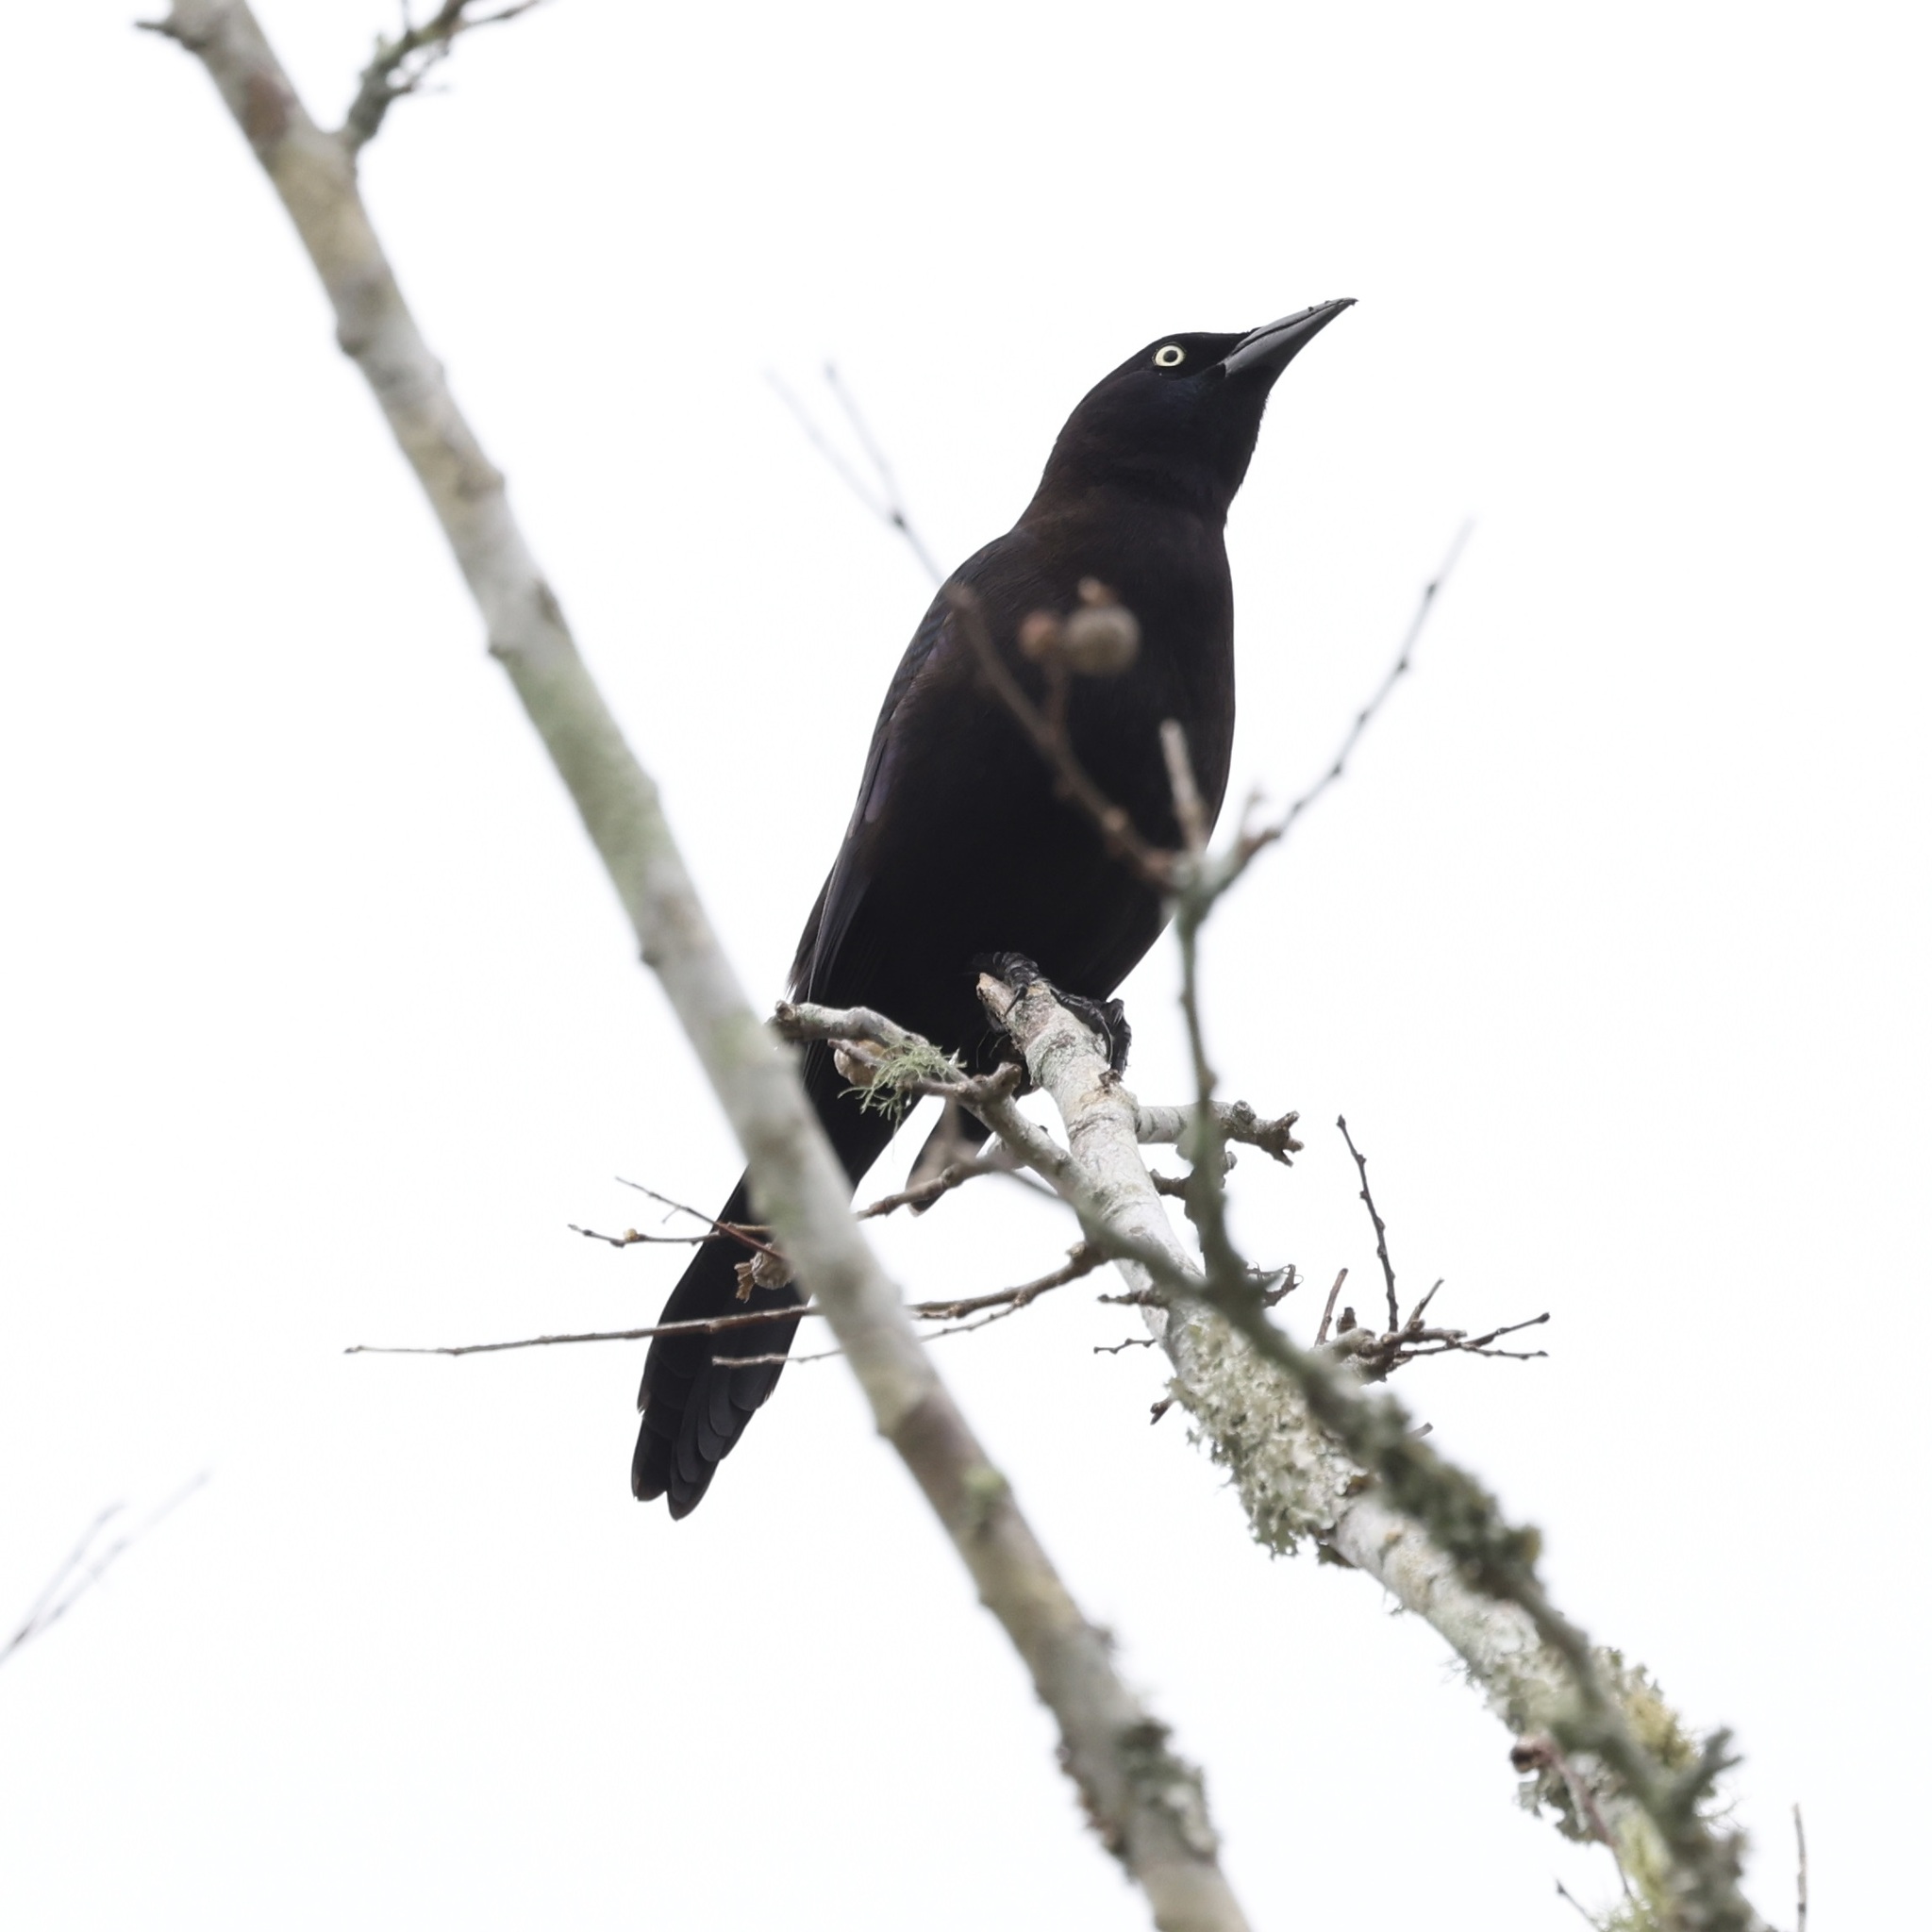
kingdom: Animalia
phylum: Chordata
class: Aves
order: Passeriformes
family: Icteridae
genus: Quiscalus
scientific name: Quiscalus quiscula
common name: Common grackle
